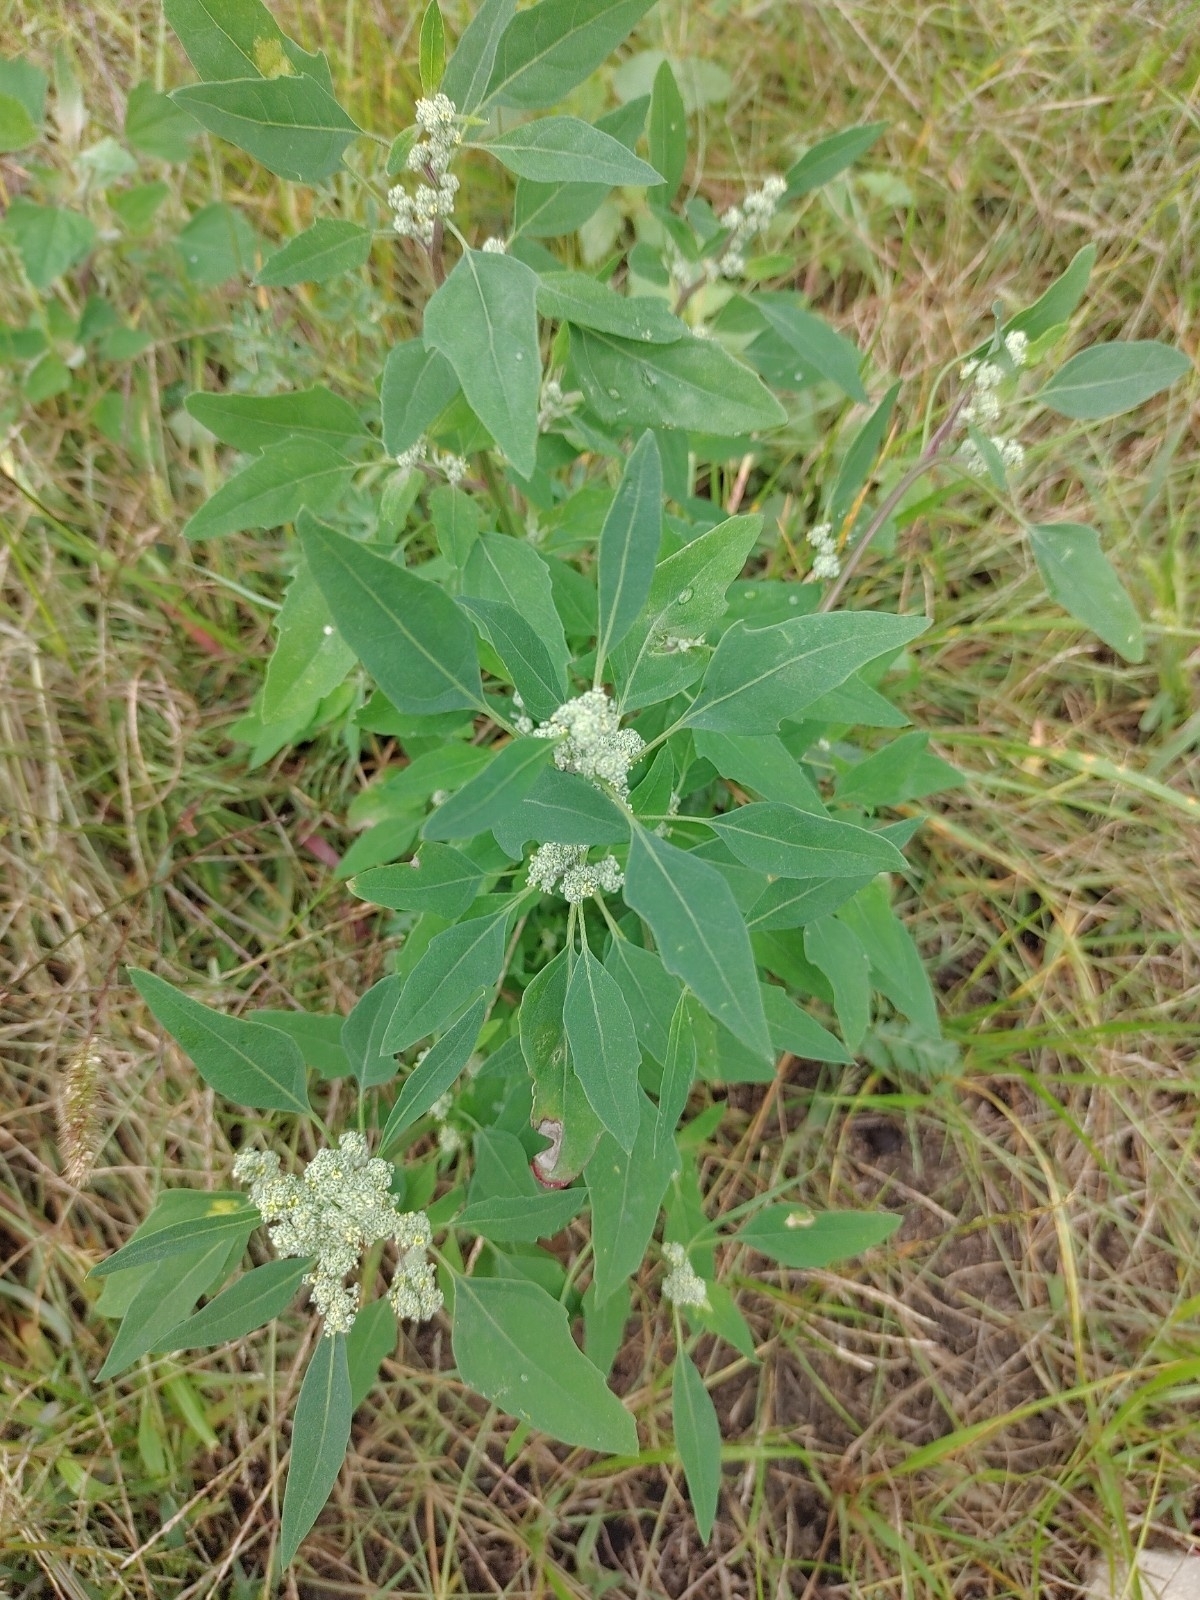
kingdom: Plantae
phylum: Tracheophyta
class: Magnoliopsida
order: Caryophyllales
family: Amaranthaceae
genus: Chenopodium
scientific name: Chenopodium album
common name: Fat-hen
